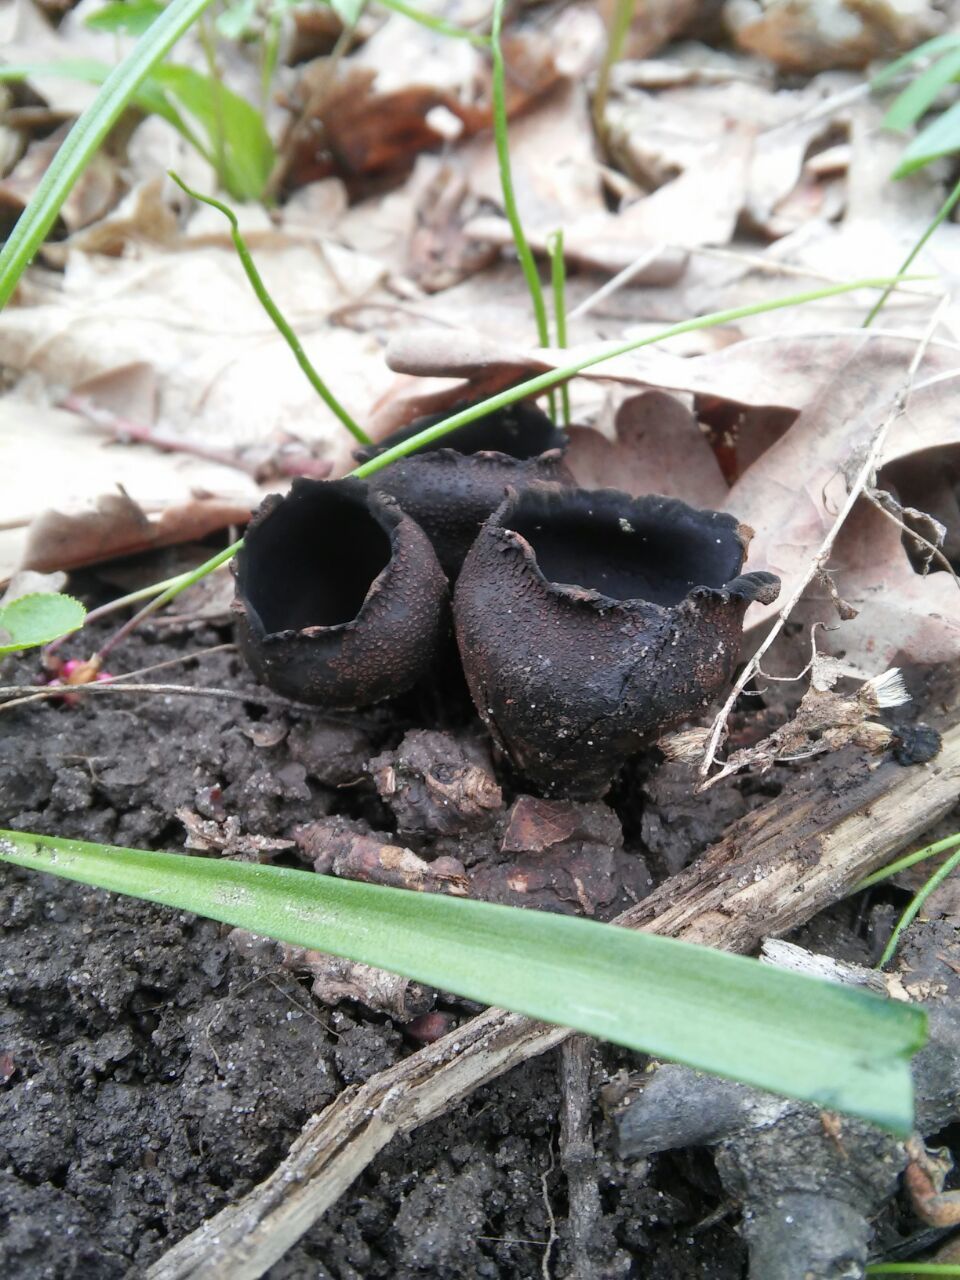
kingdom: Fungi
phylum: Ascomycota
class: Pezizomycetes
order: Pezizales
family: Sarcosomataceae
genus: Urnula
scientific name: Urnula craterium
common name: Devil's urn
